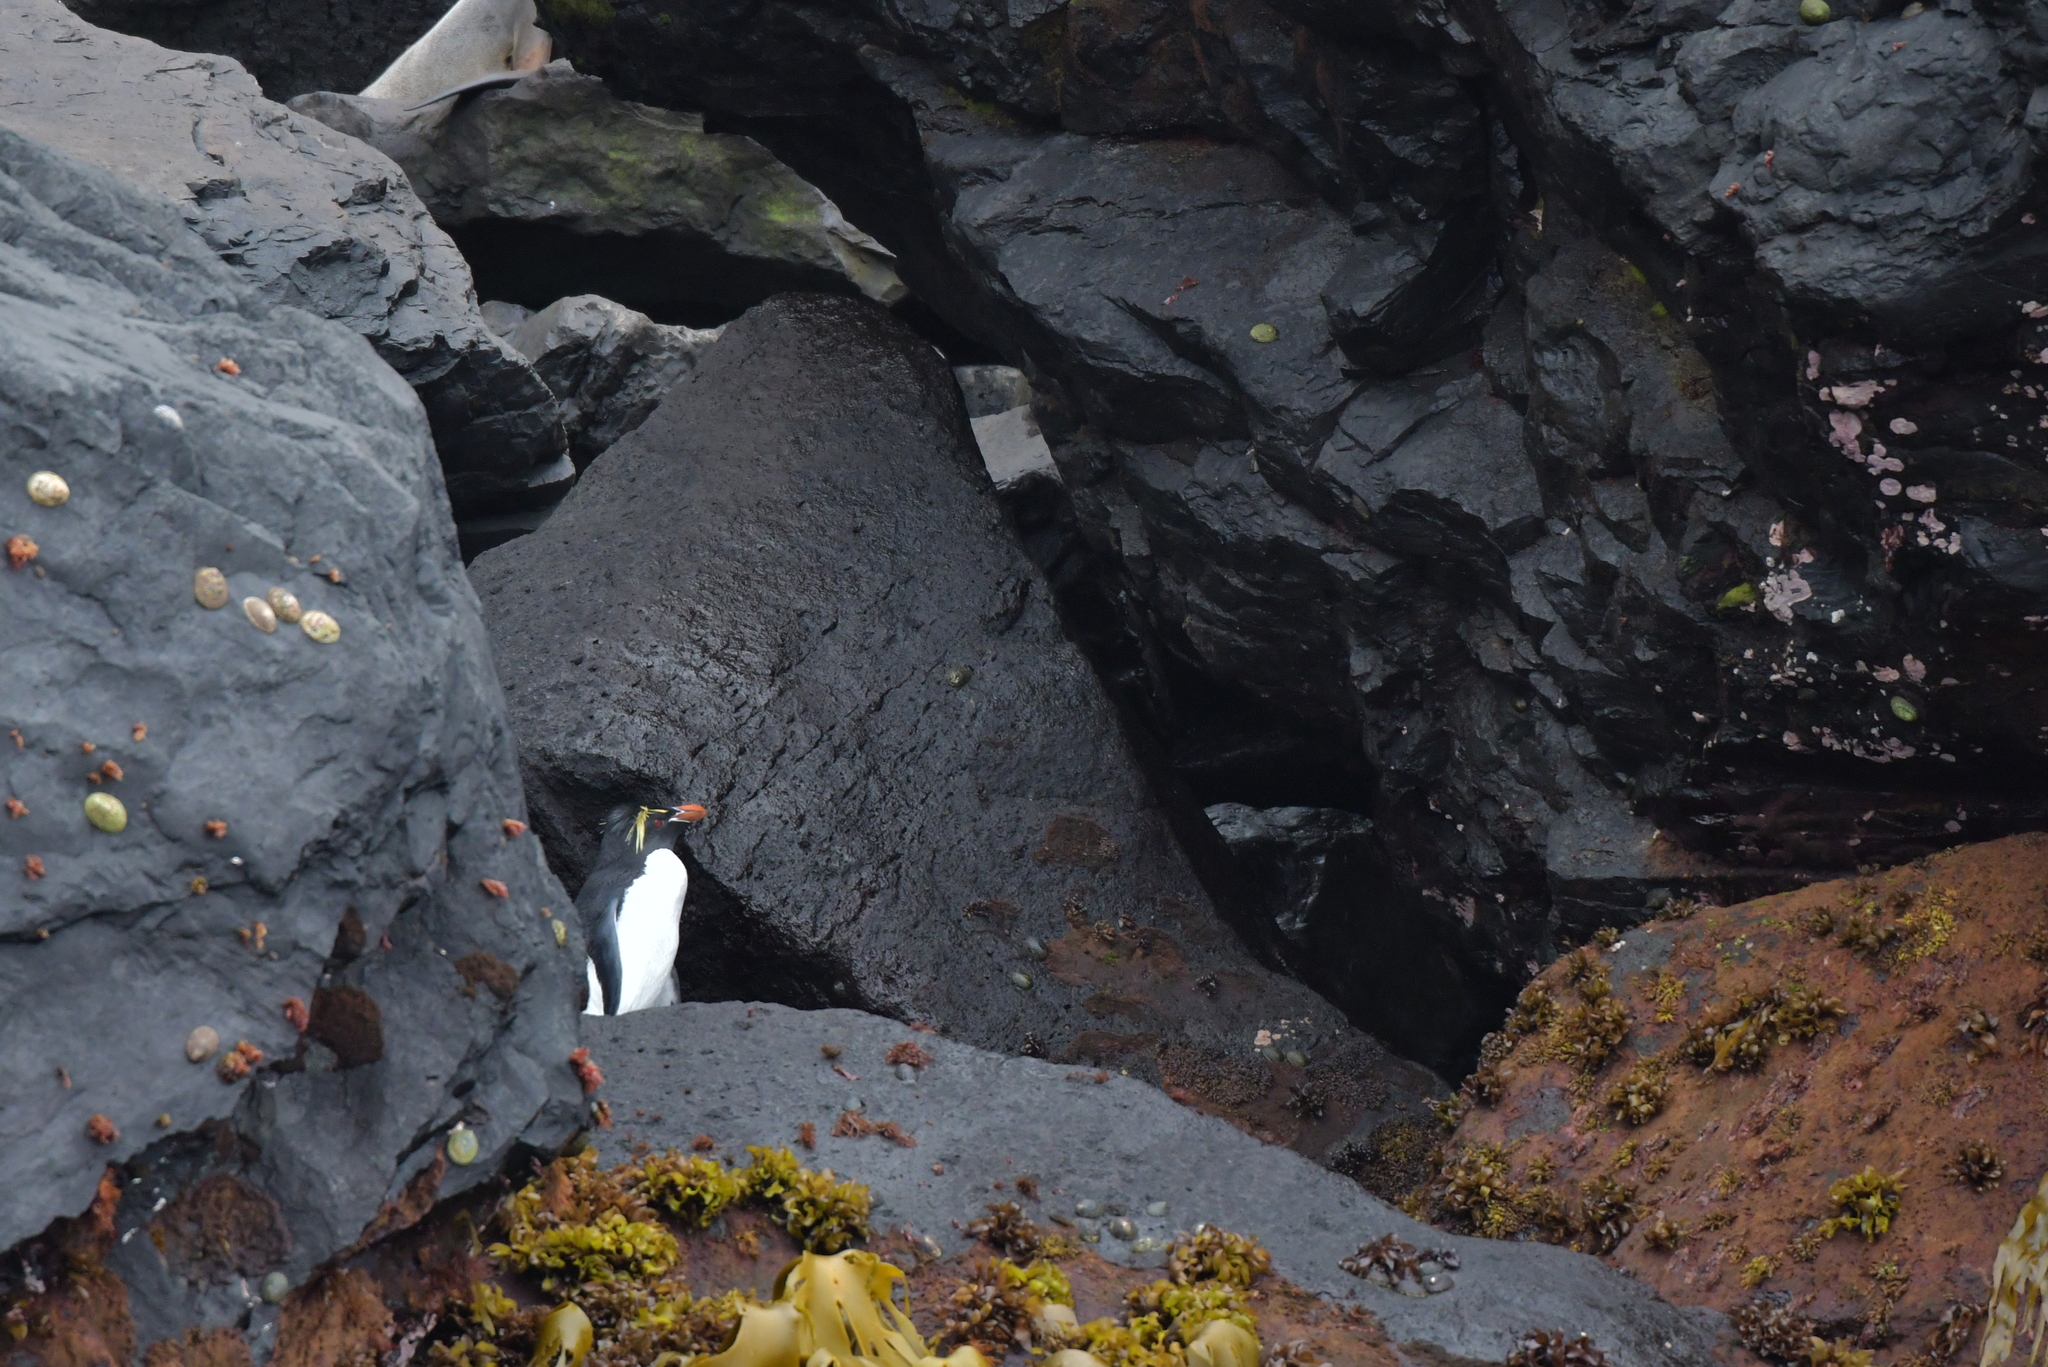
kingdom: Animalia
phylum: Chordata
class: Aves
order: Sphenisciformes
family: Spheniscidae
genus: Eudyptes
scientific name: Eudyptes filholi
